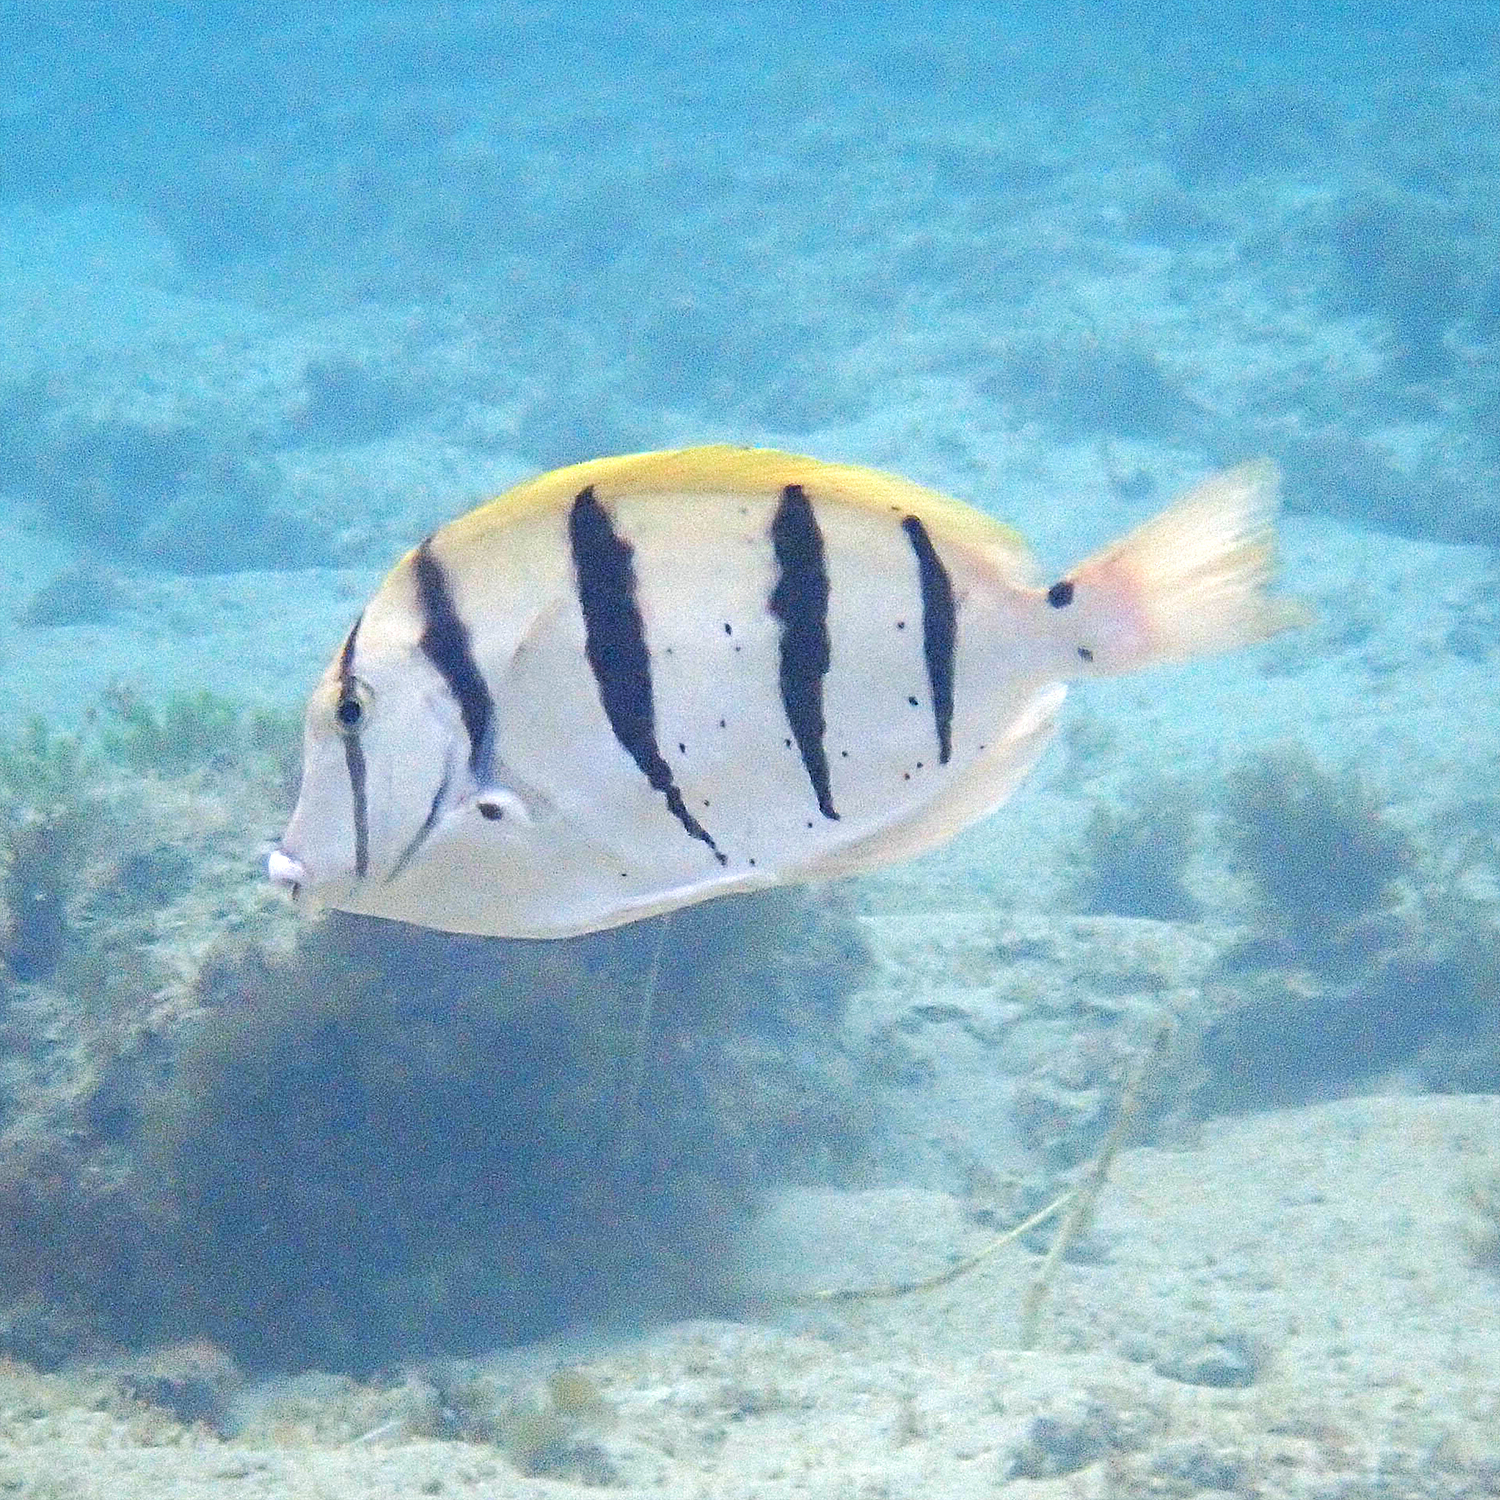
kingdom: Animalia
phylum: Chordata
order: Perciformes
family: Acanthuridae
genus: Acanthurus
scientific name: Acanthurus triostegus
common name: Convict surgeonfish
